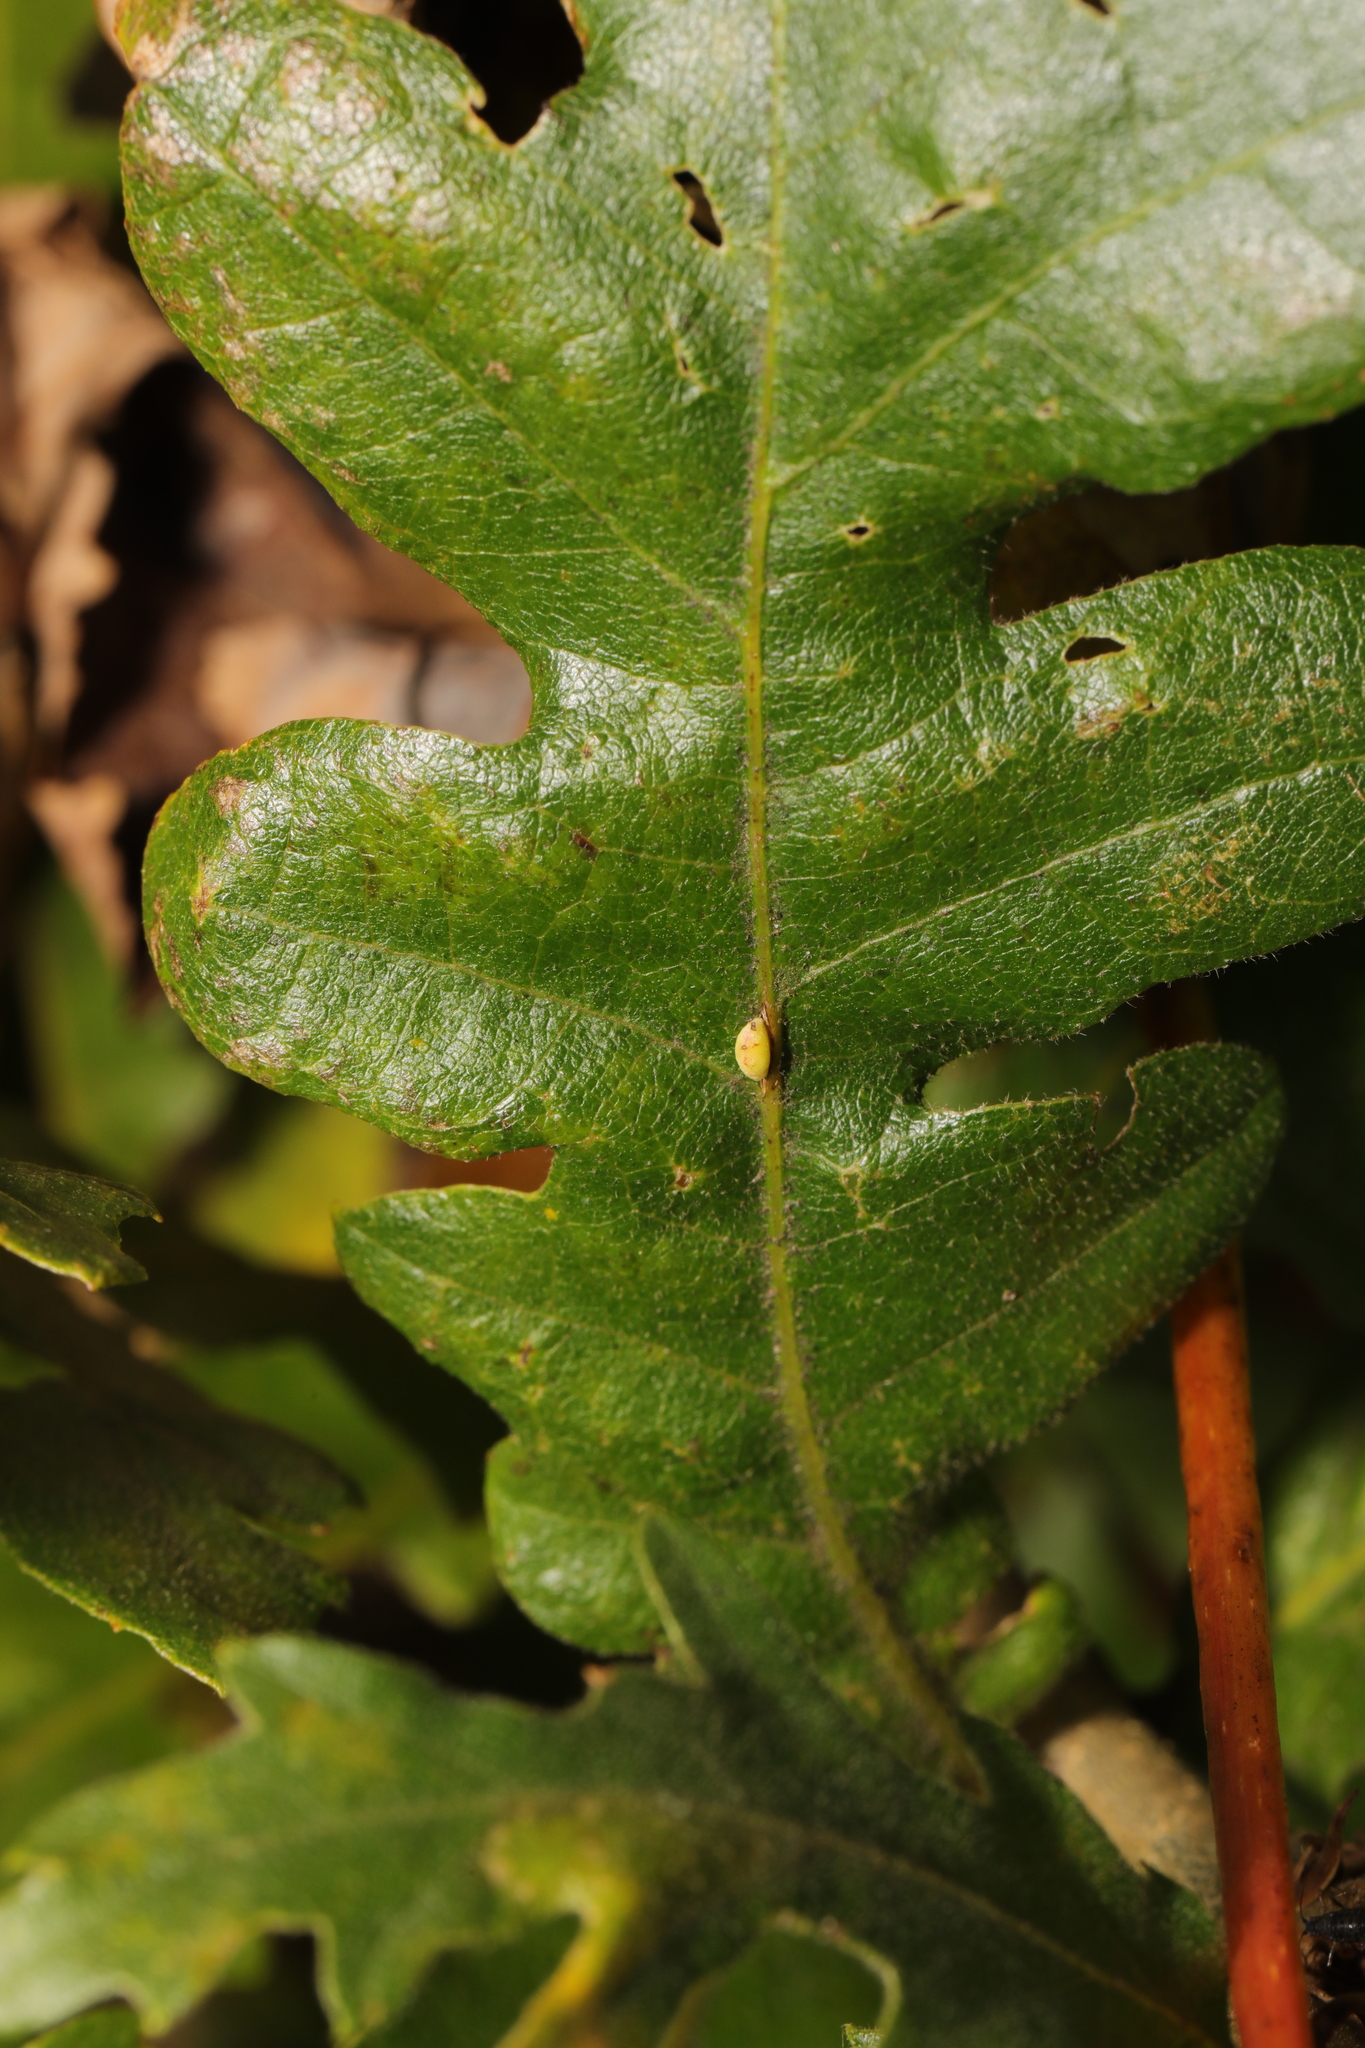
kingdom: Animalia
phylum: Arthropoda
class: Insecta
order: Hymenoptera
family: Cynipidae
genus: Neuroterus
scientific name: Neuroterus saliens
